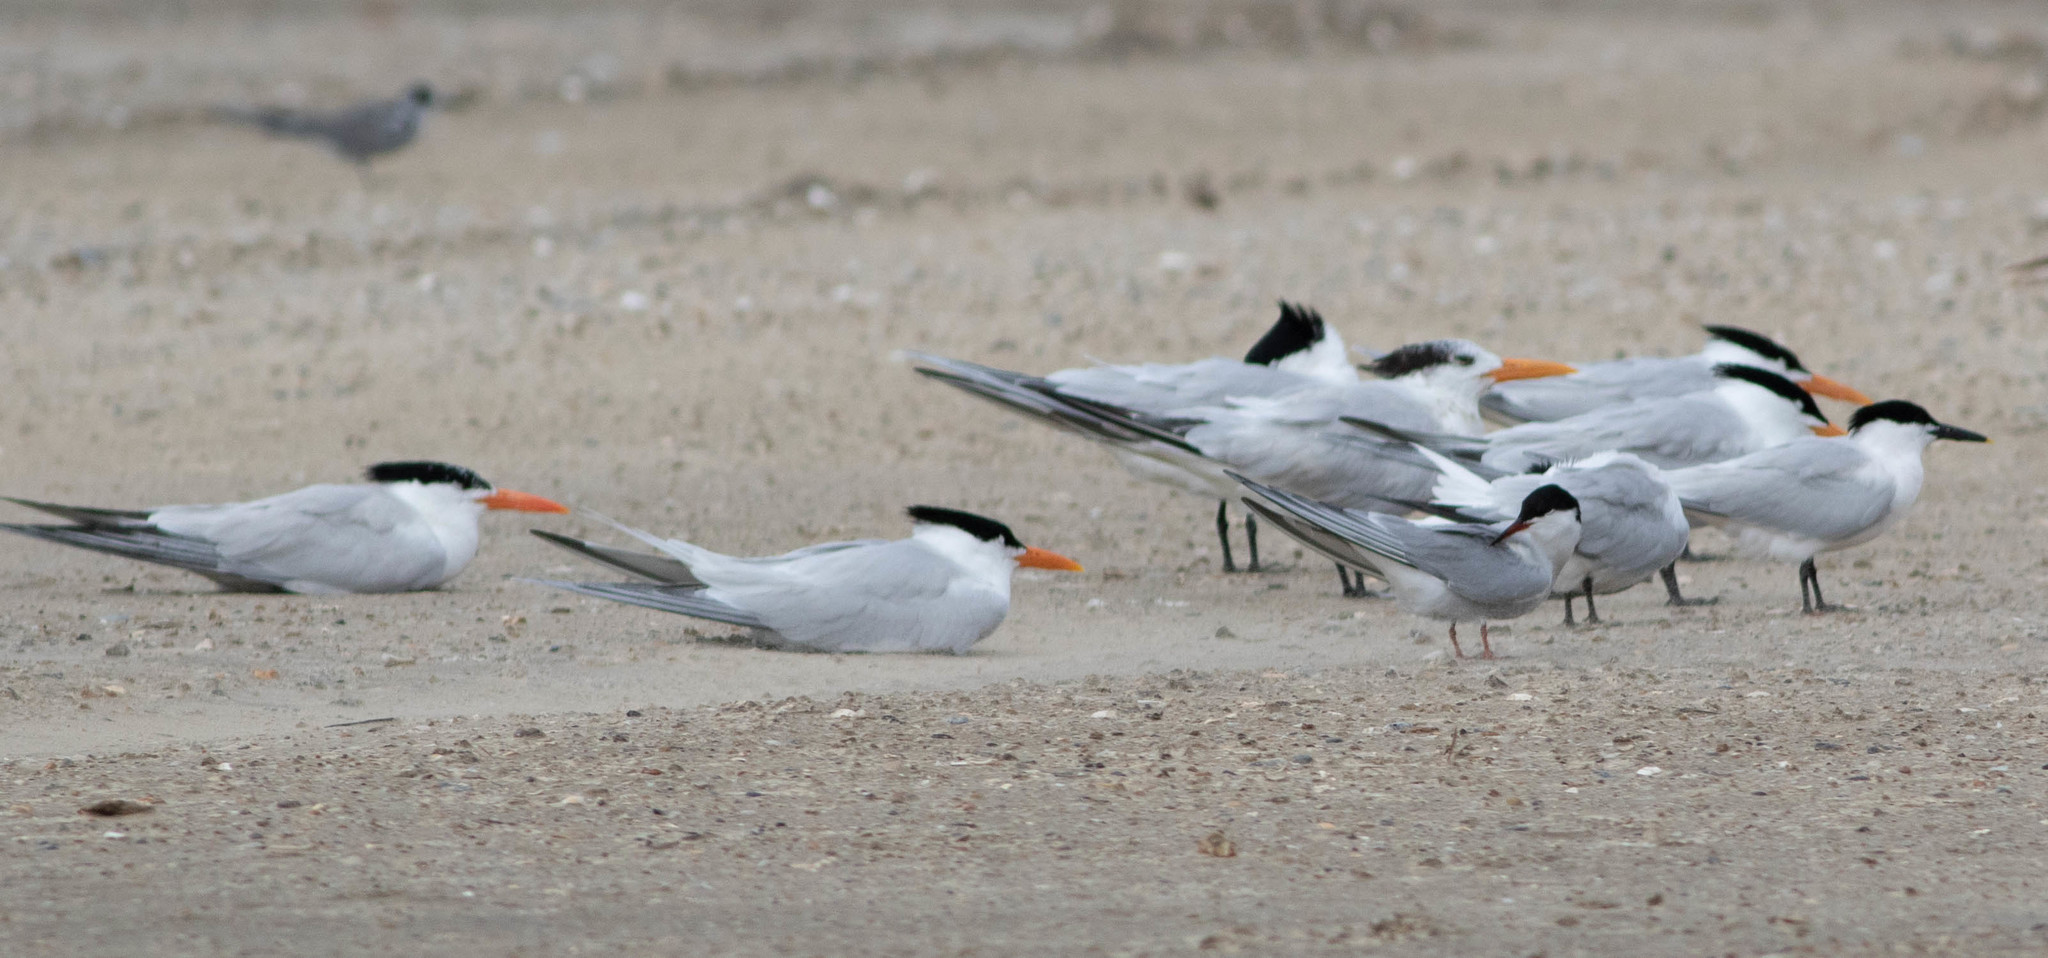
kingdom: Animalia
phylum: Chordata
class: Aves
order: Charadriiformes
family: Laridae
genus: Thalasseus
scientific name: Thalasseus maximus
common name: Royal tern
